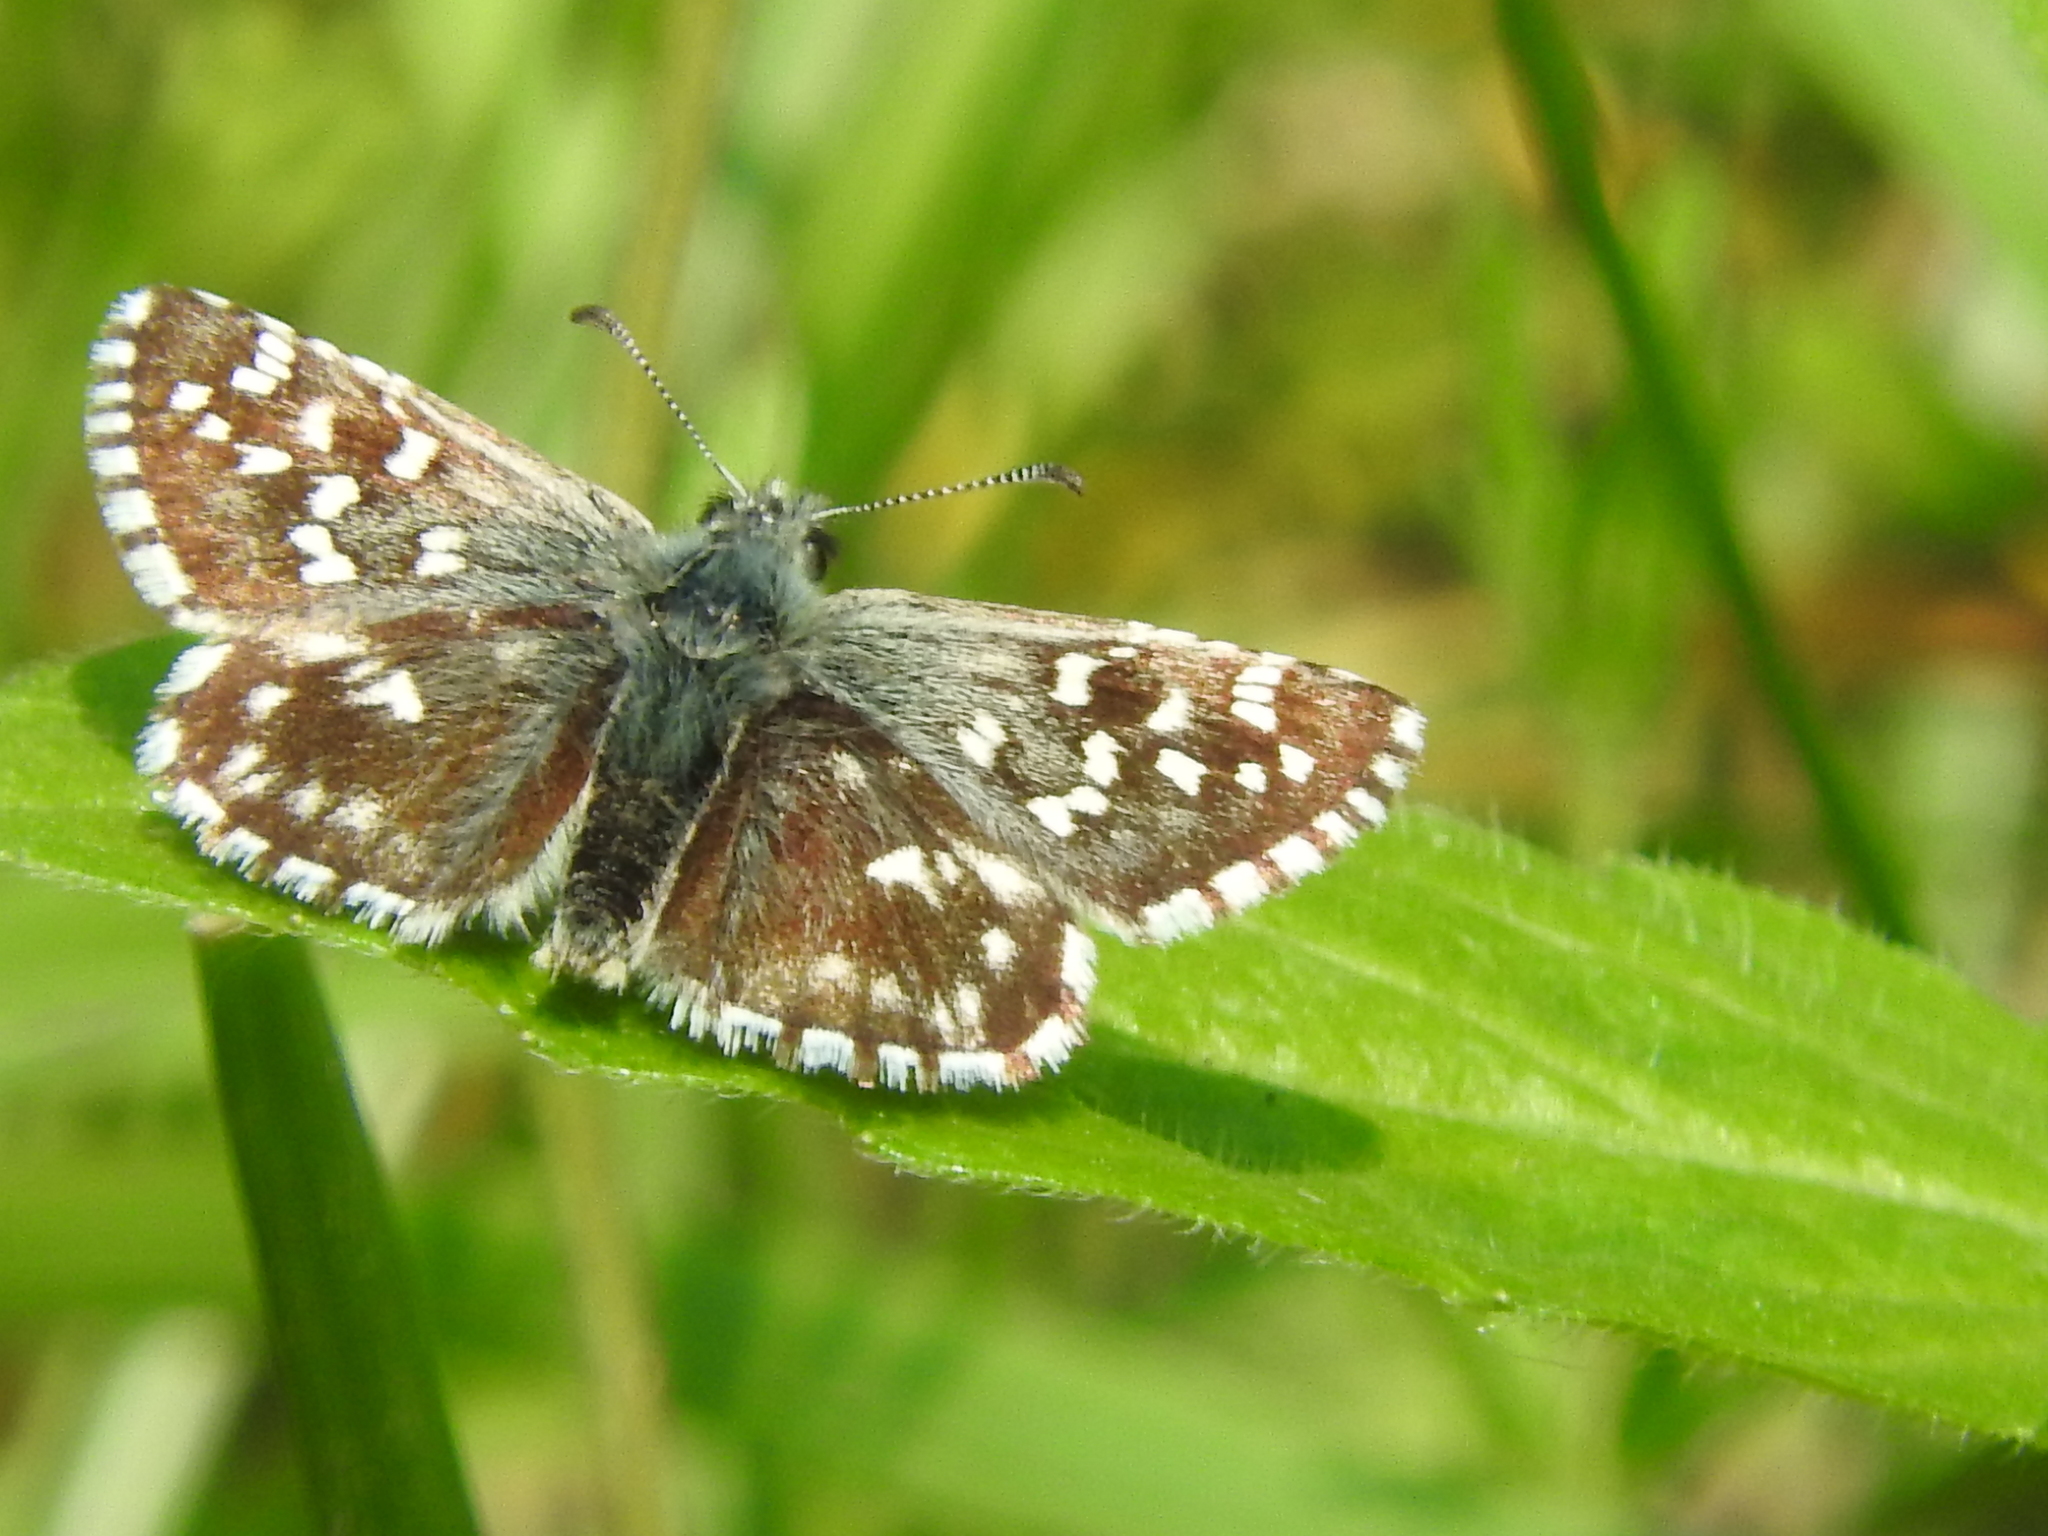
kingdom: Animalia
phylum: Arthropoda
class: Insecta
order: Lepidoptera
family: Hesperiidae
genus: Pyrgus
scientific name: Pyrgus malvoides
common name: Southern grizzled skipper
